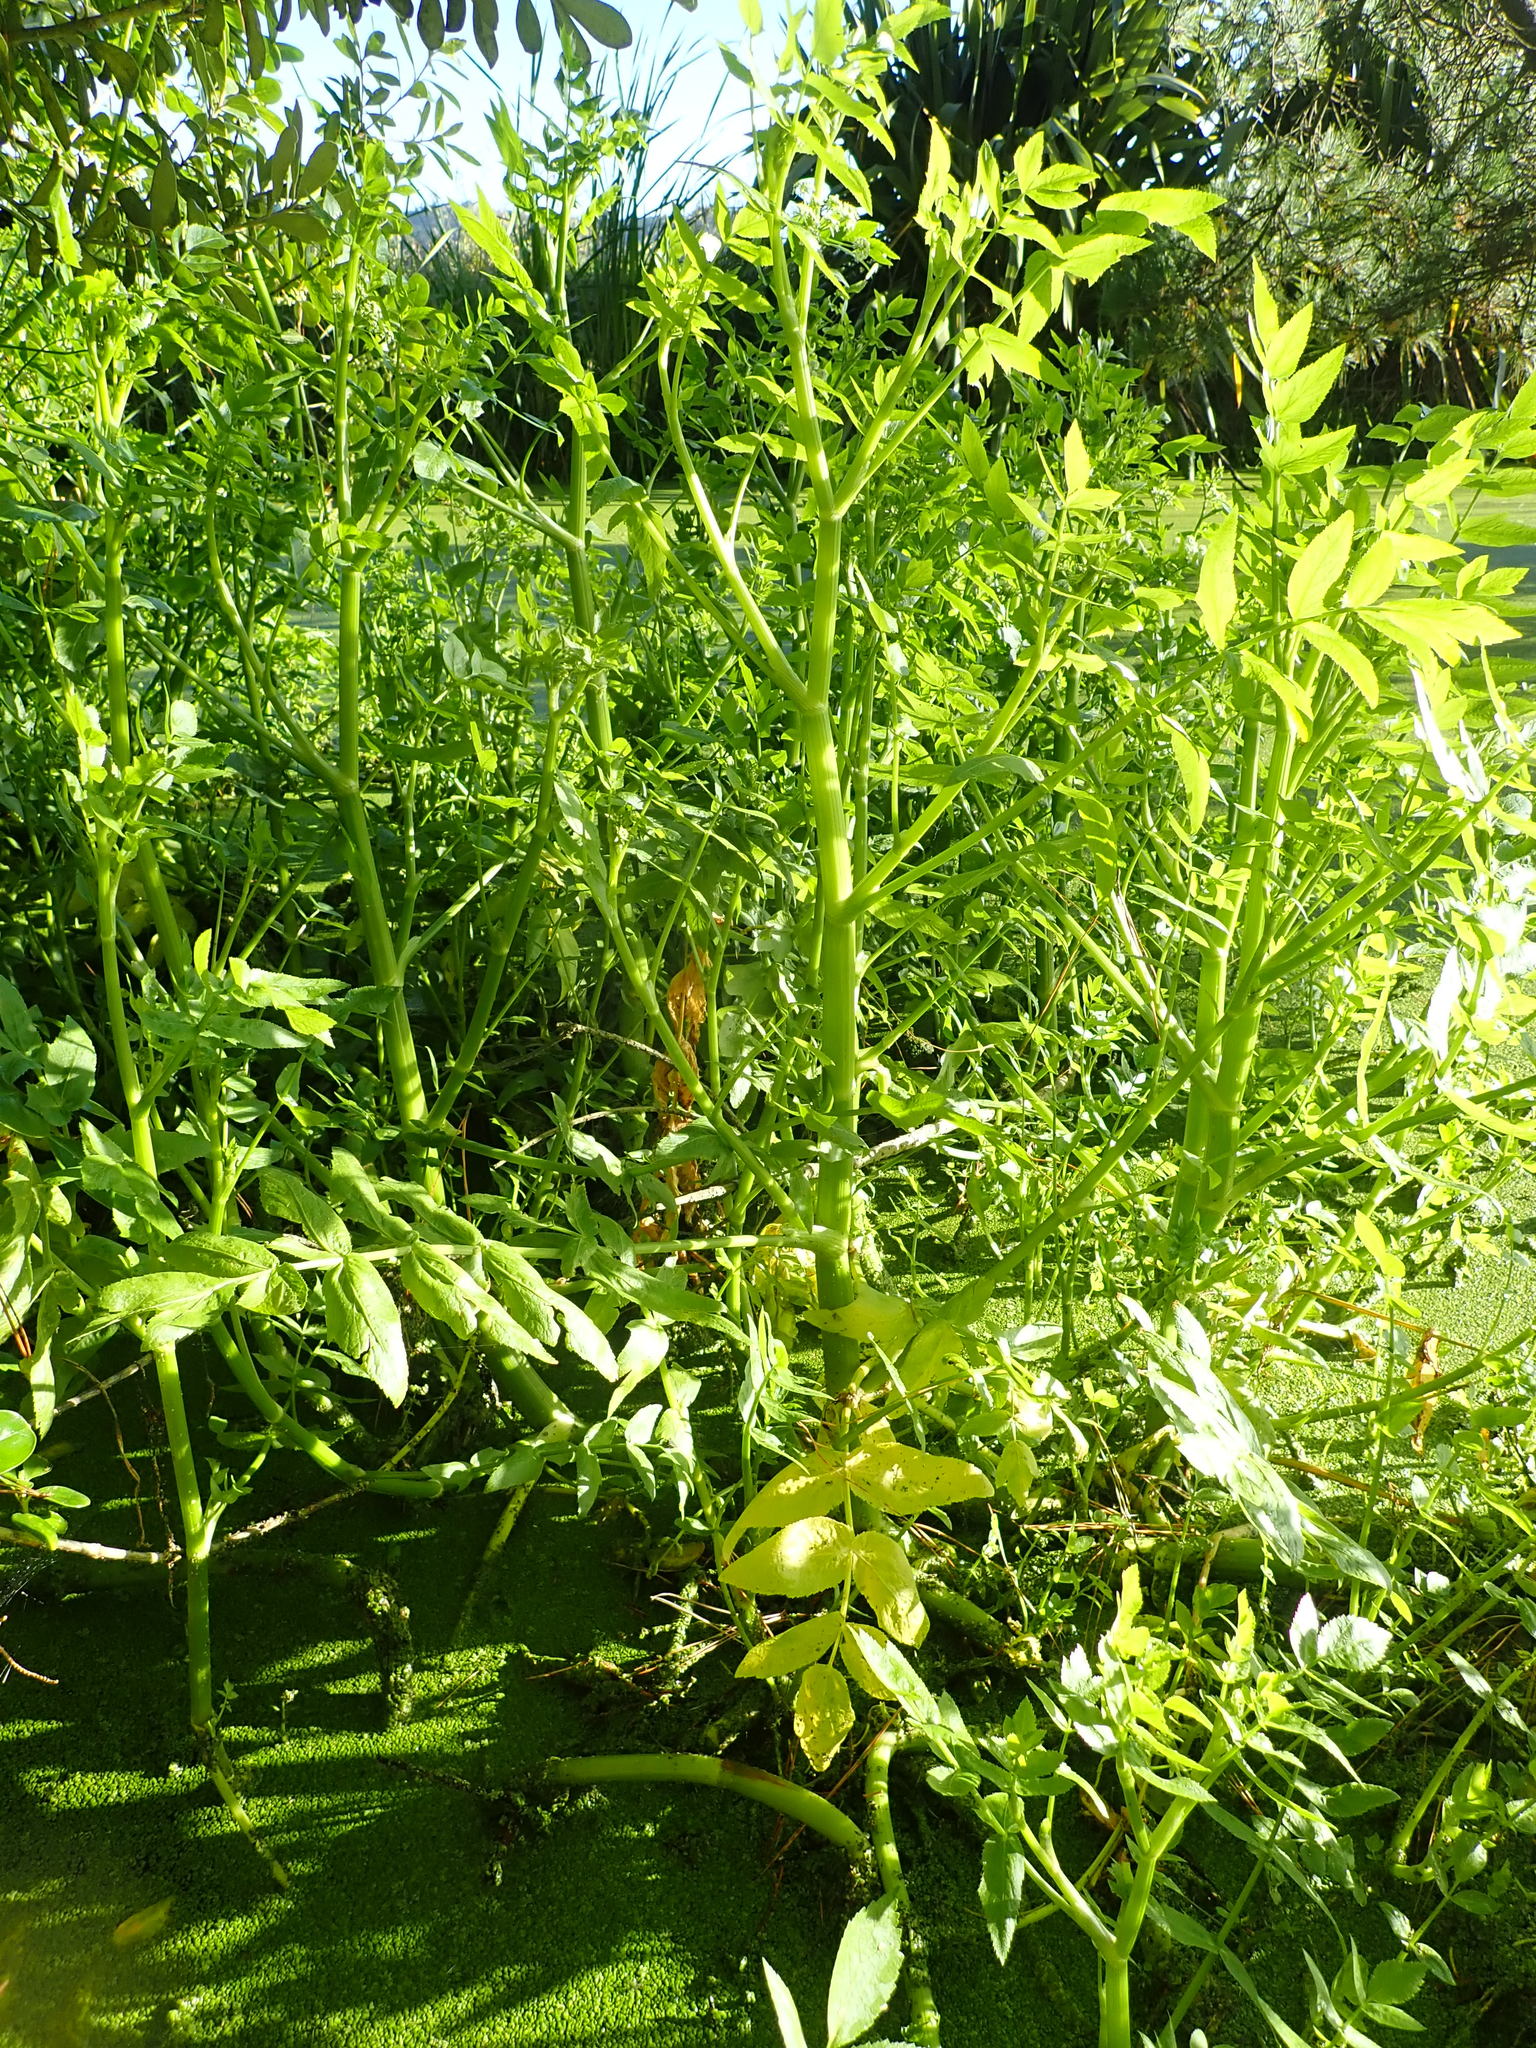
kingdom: Plantae
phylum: Tracheophyta
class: Magnoliopsida
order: Apiales
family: Apiaceae
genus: Helosciadium
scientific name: Helosciadium nodiflorum
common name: Fool's-watercress
